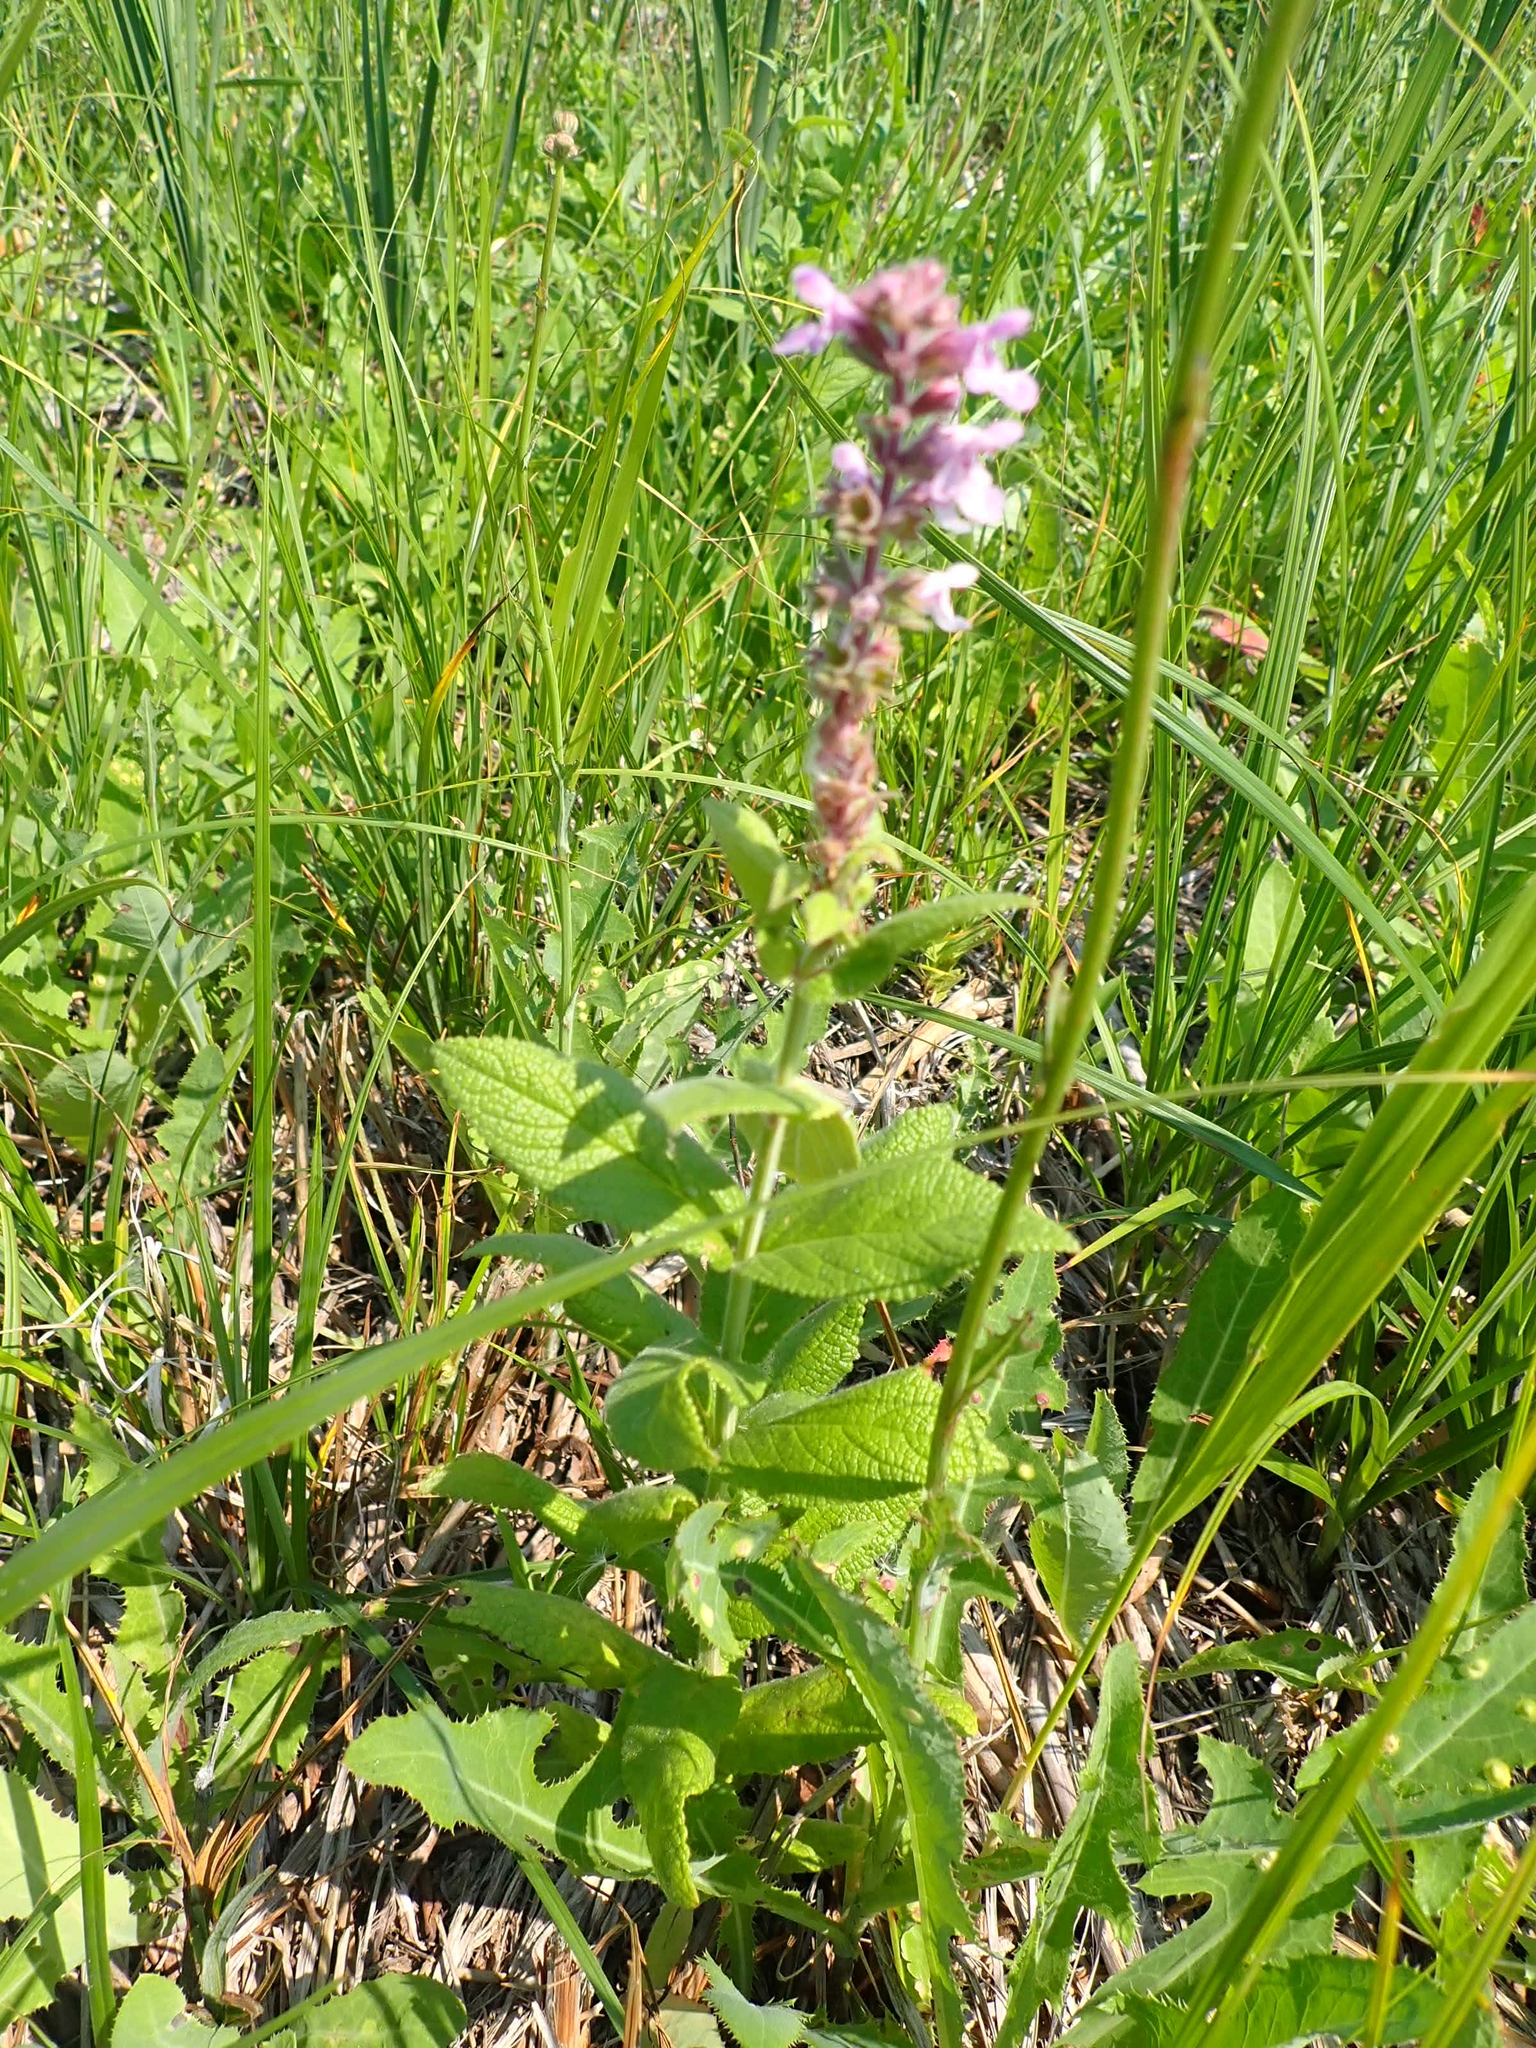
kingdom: Plantae
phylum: Tracheophyta
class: Magnoliopsida
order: Lamiales
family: Lamiaceae
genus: Stachys
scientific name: Stachys palustris
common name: Marsh woundwort
